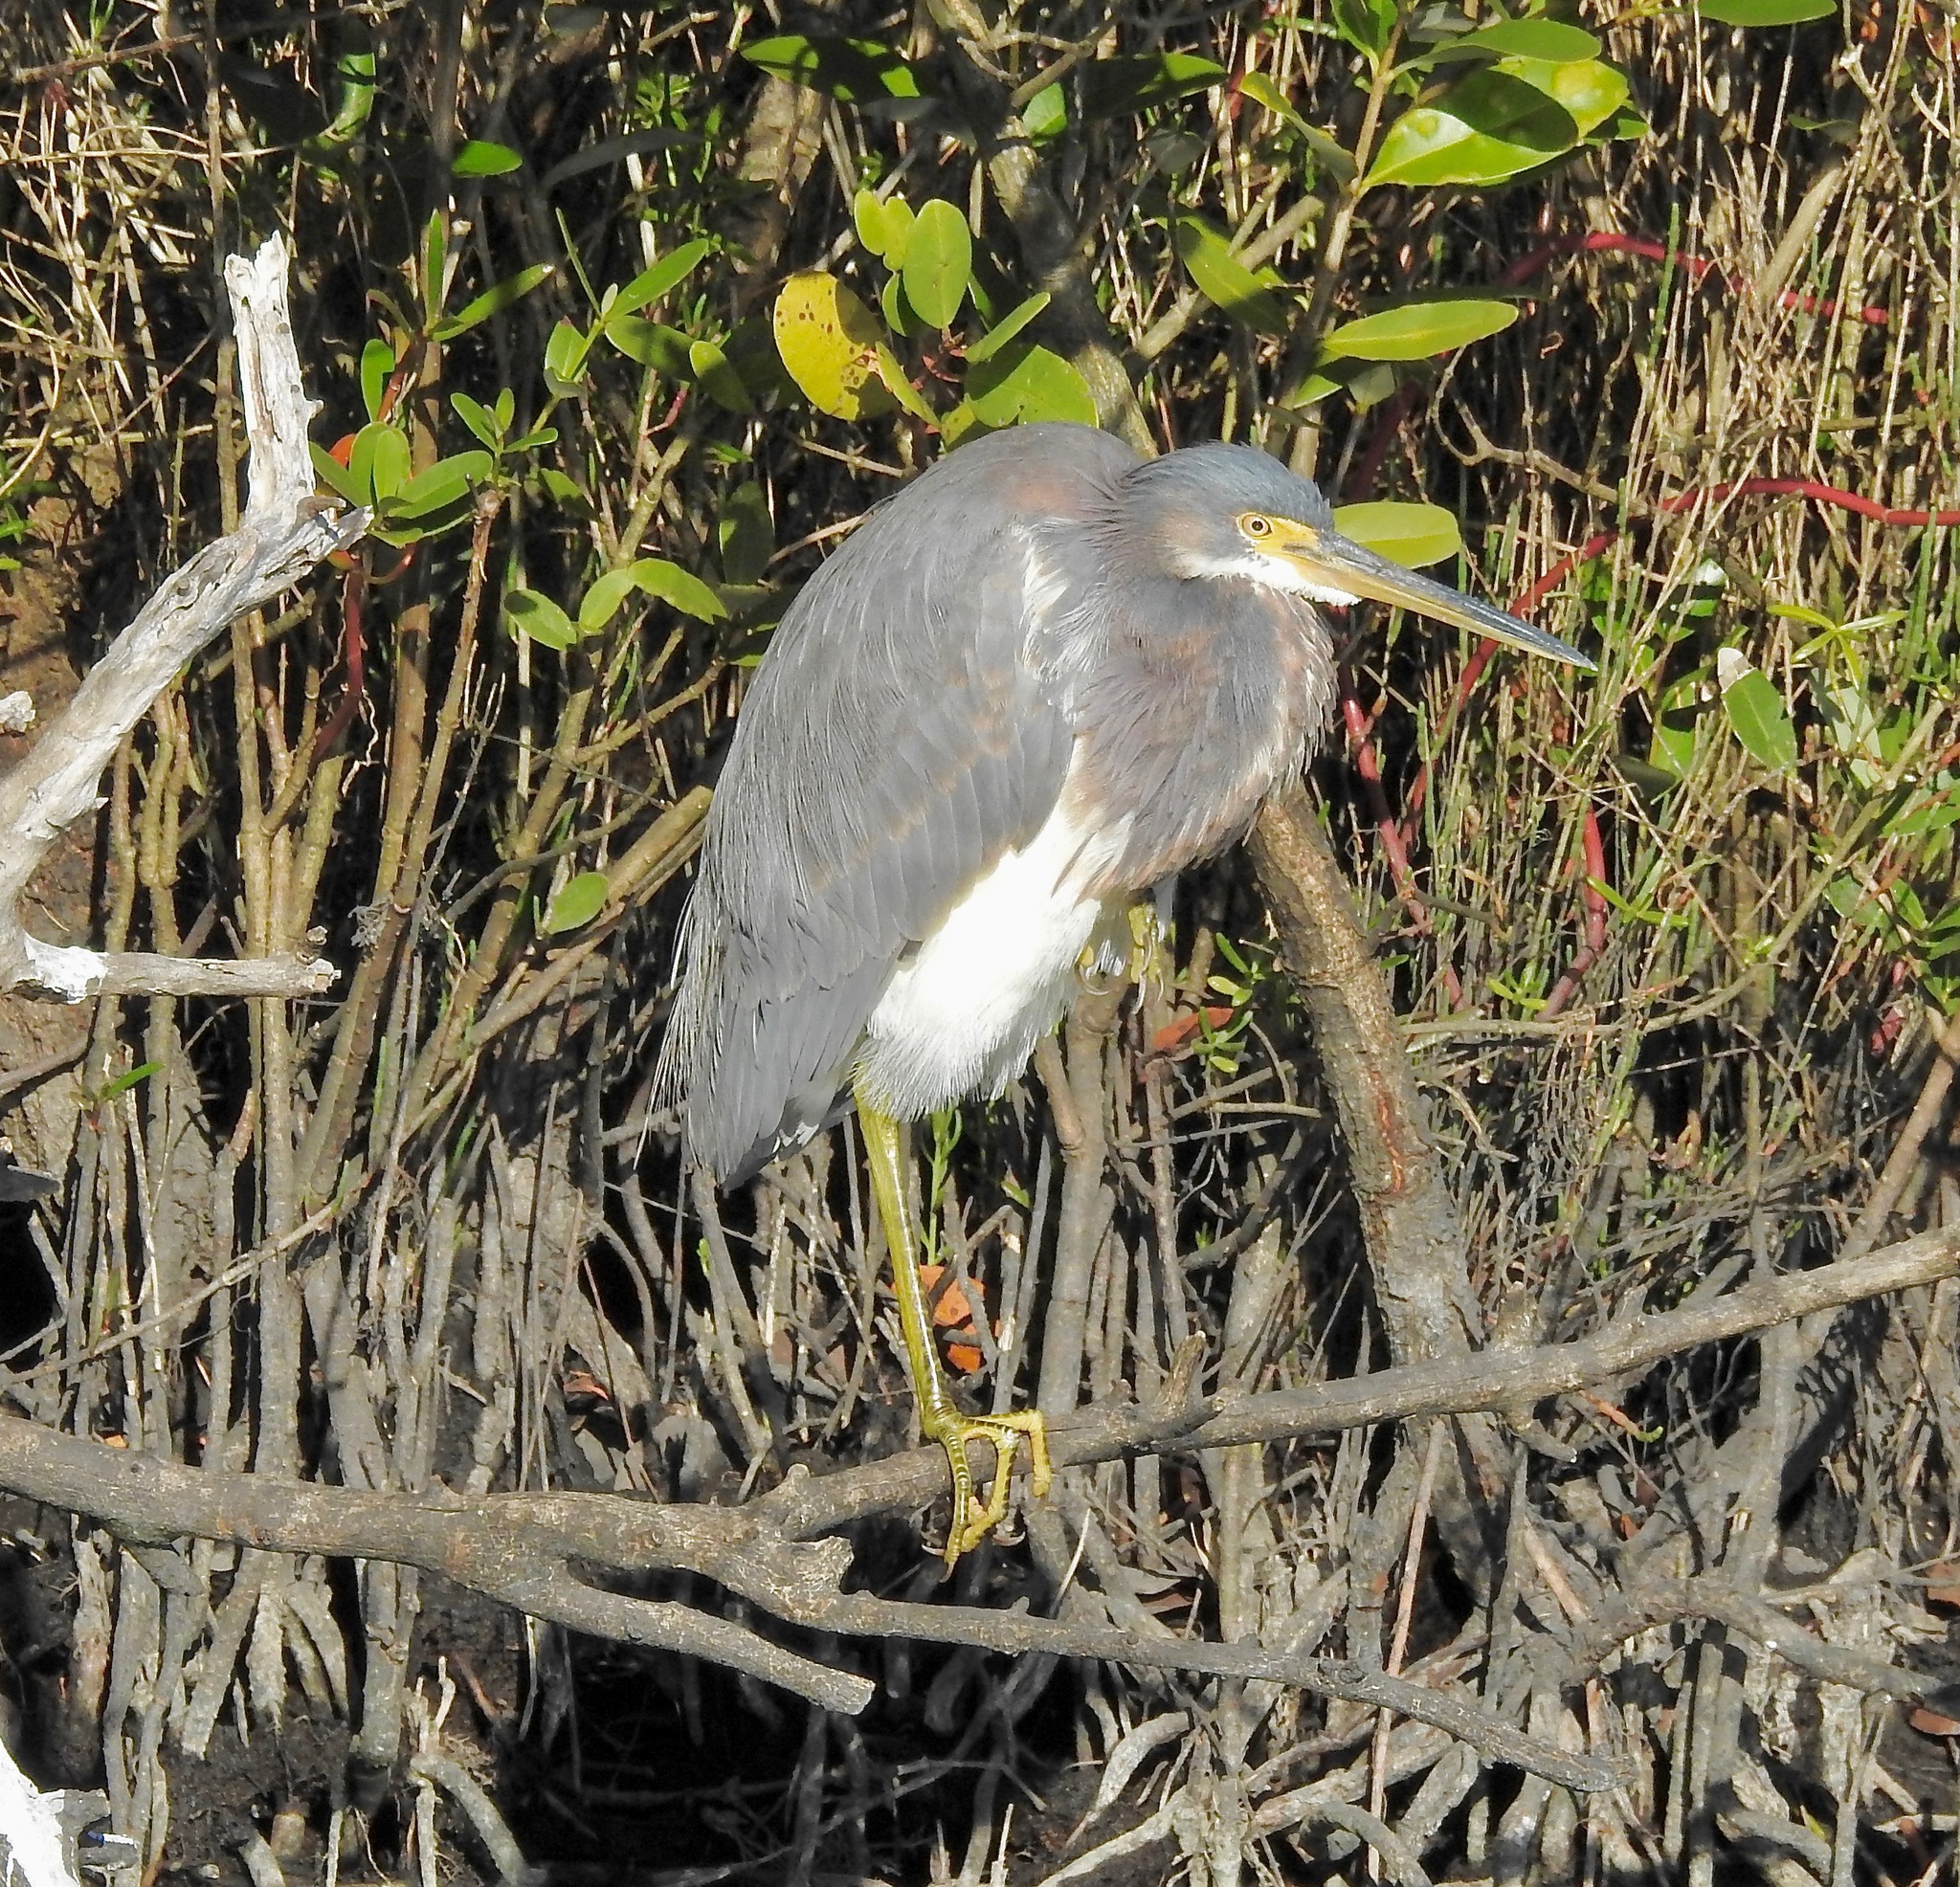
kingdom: Animalia
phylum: Chordata
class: Aves
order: Pelecaniformes
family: Ardeidae
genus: Egretta
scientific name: Egretta tricolor
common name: Tricolored heron
